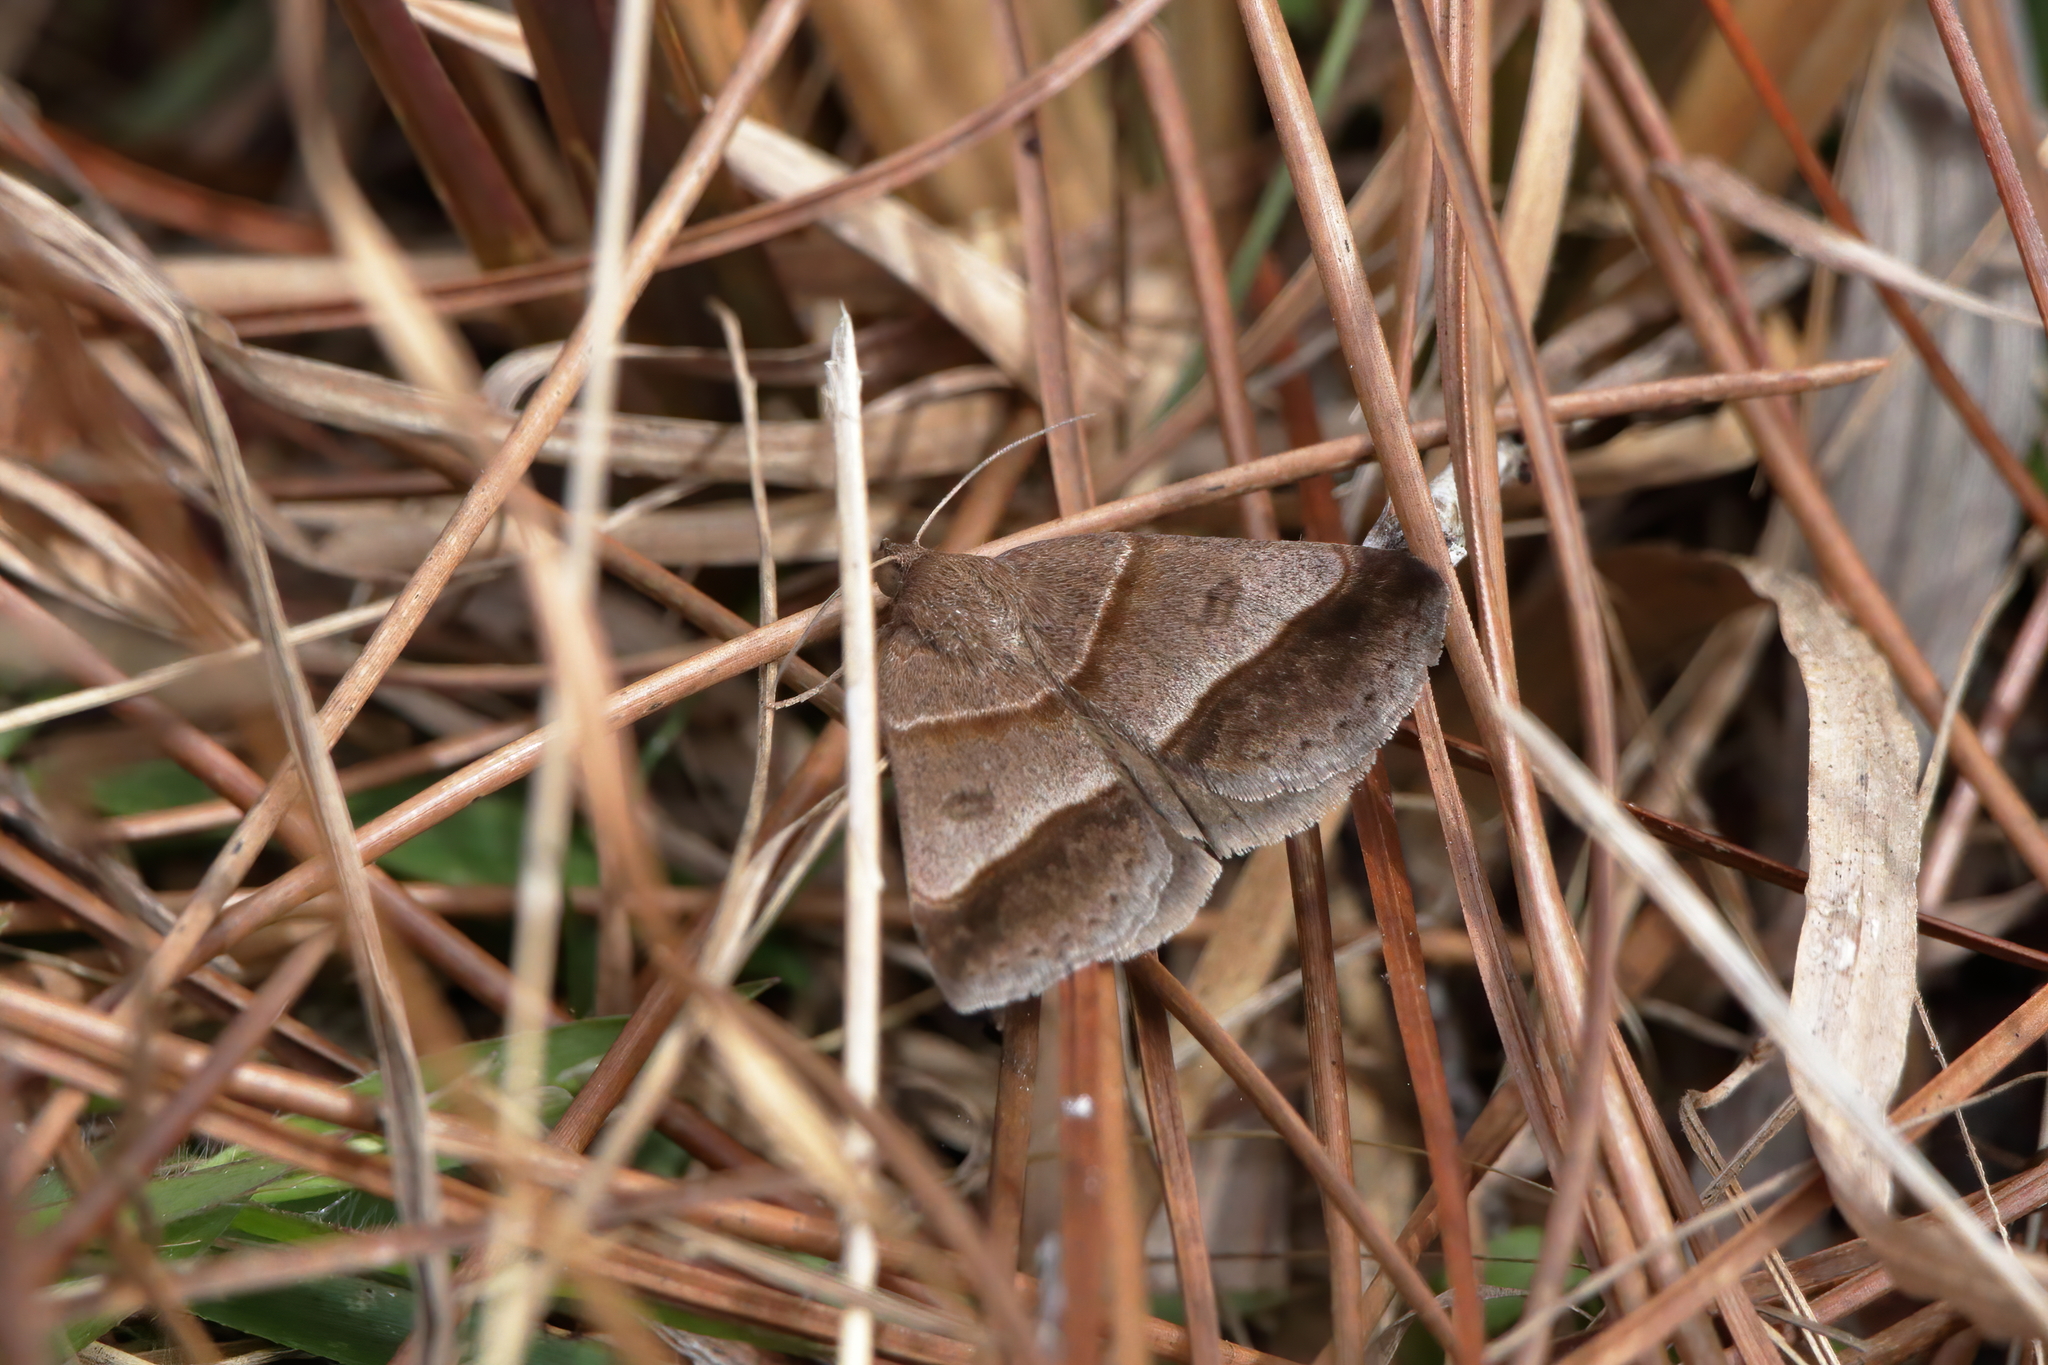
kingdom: Animalia
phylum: Arthropoda
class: Insecta
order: Lepidoptera
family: Erebidae
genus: Argyrostrotis
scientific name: Argyrostrotis sylvarum
